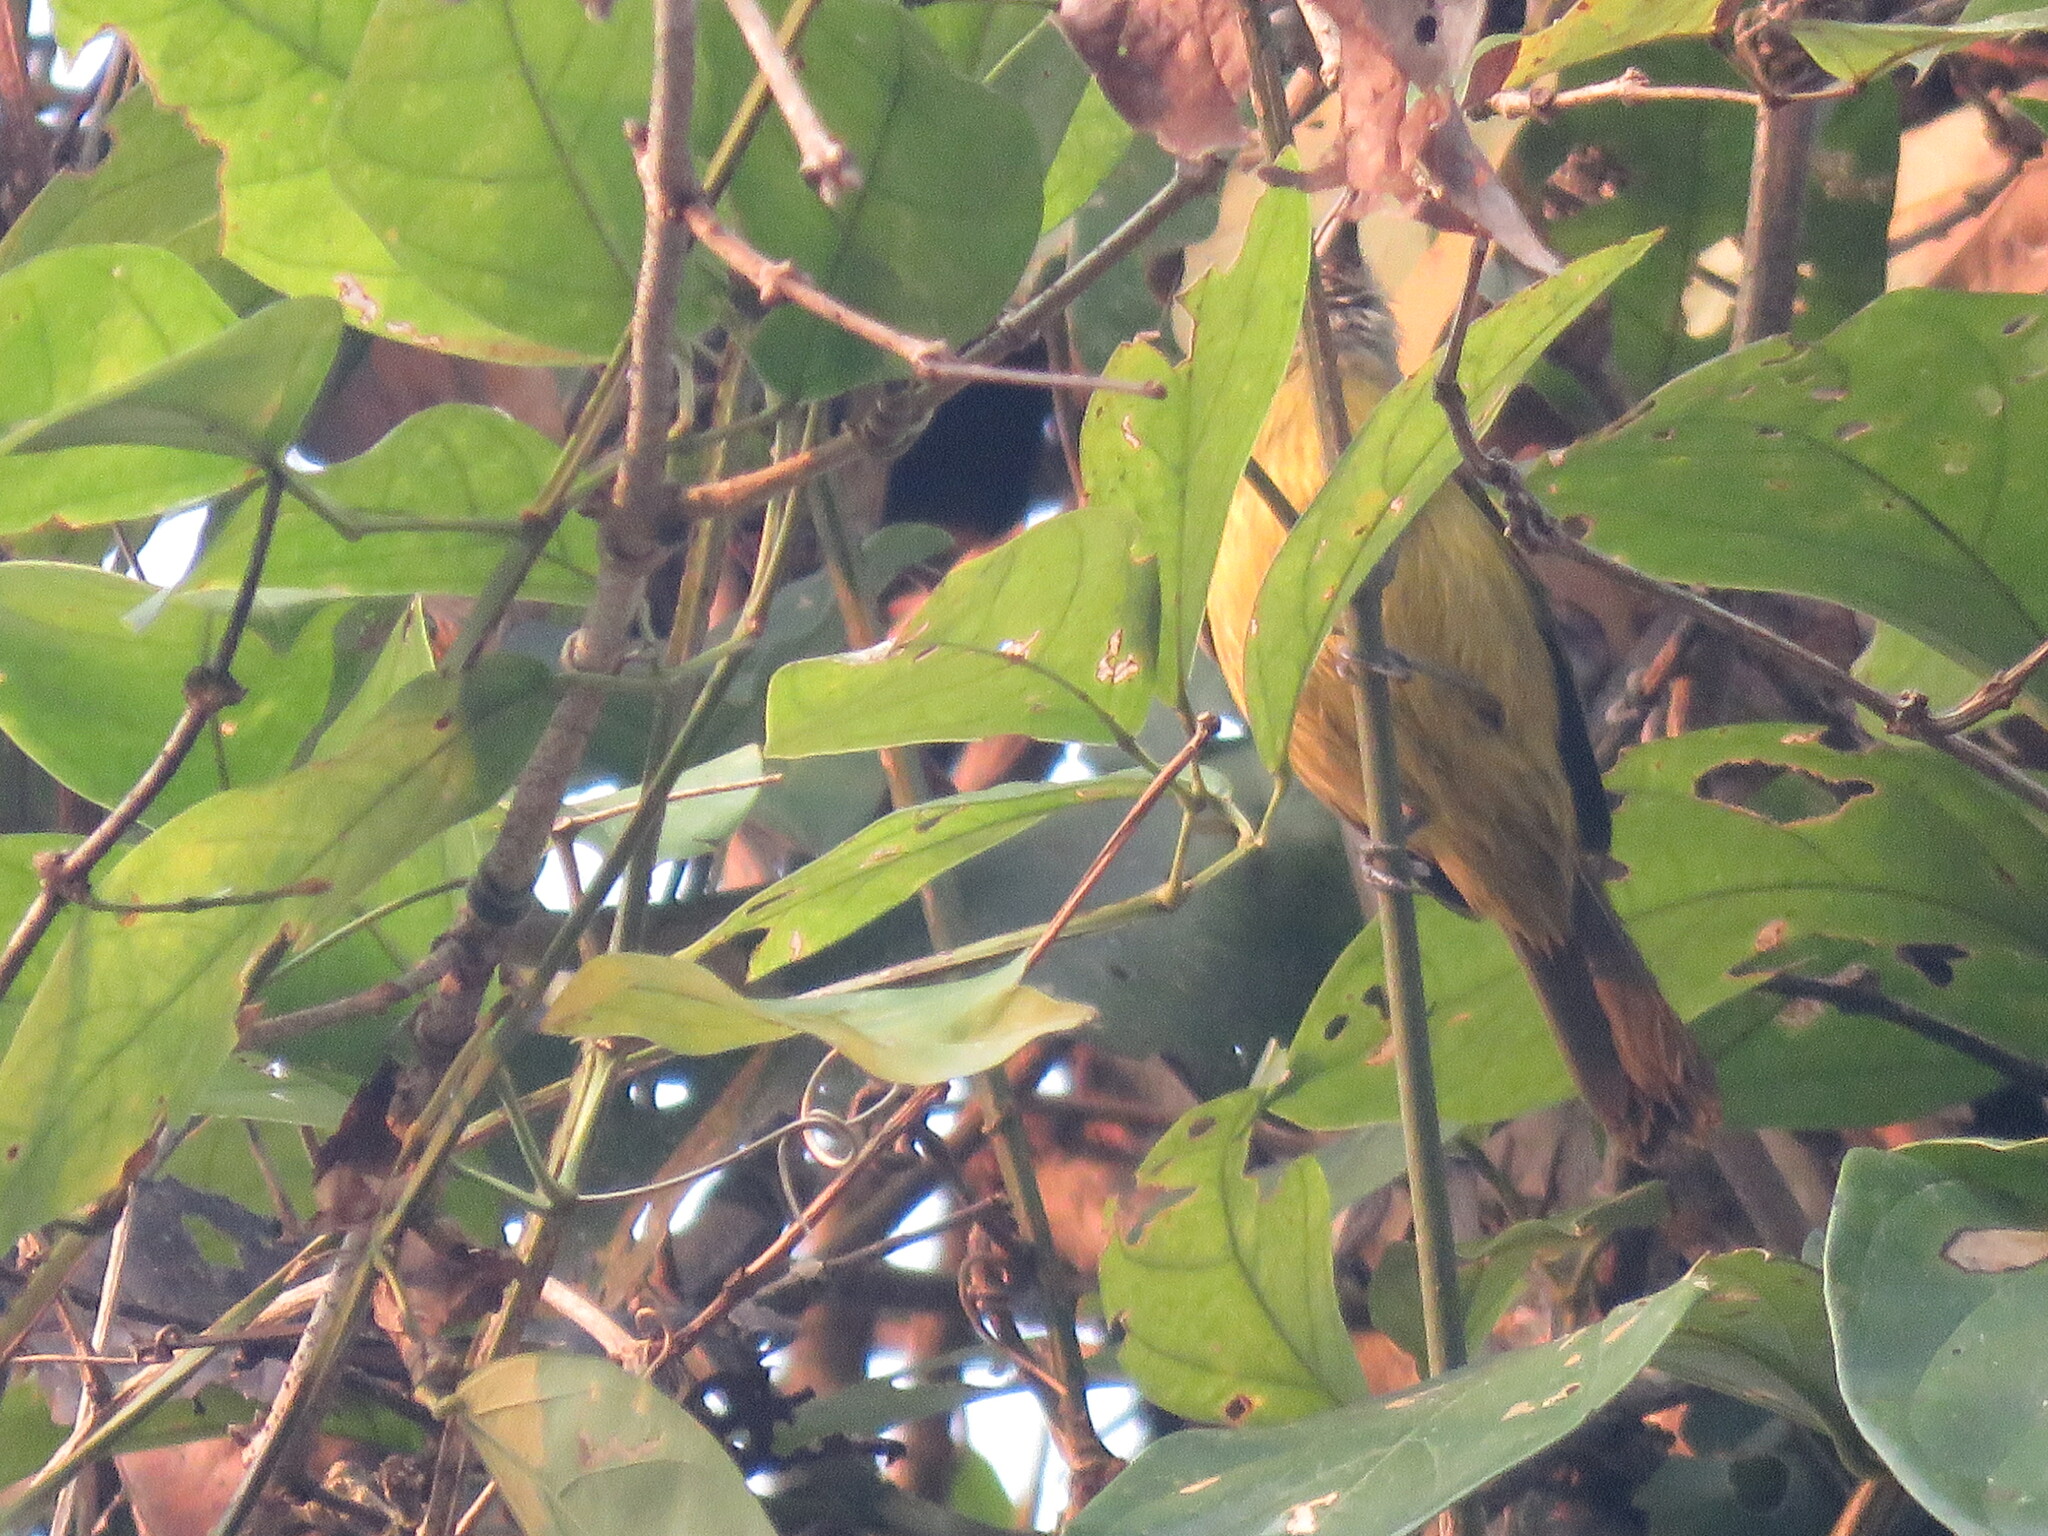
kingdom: Animalia
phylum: Chordata
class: Aves
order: Passeriformes
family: Vireonidae
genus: Hylophilus
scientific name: Hylophilus pectoralis
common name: Ashy-headed greenlet
